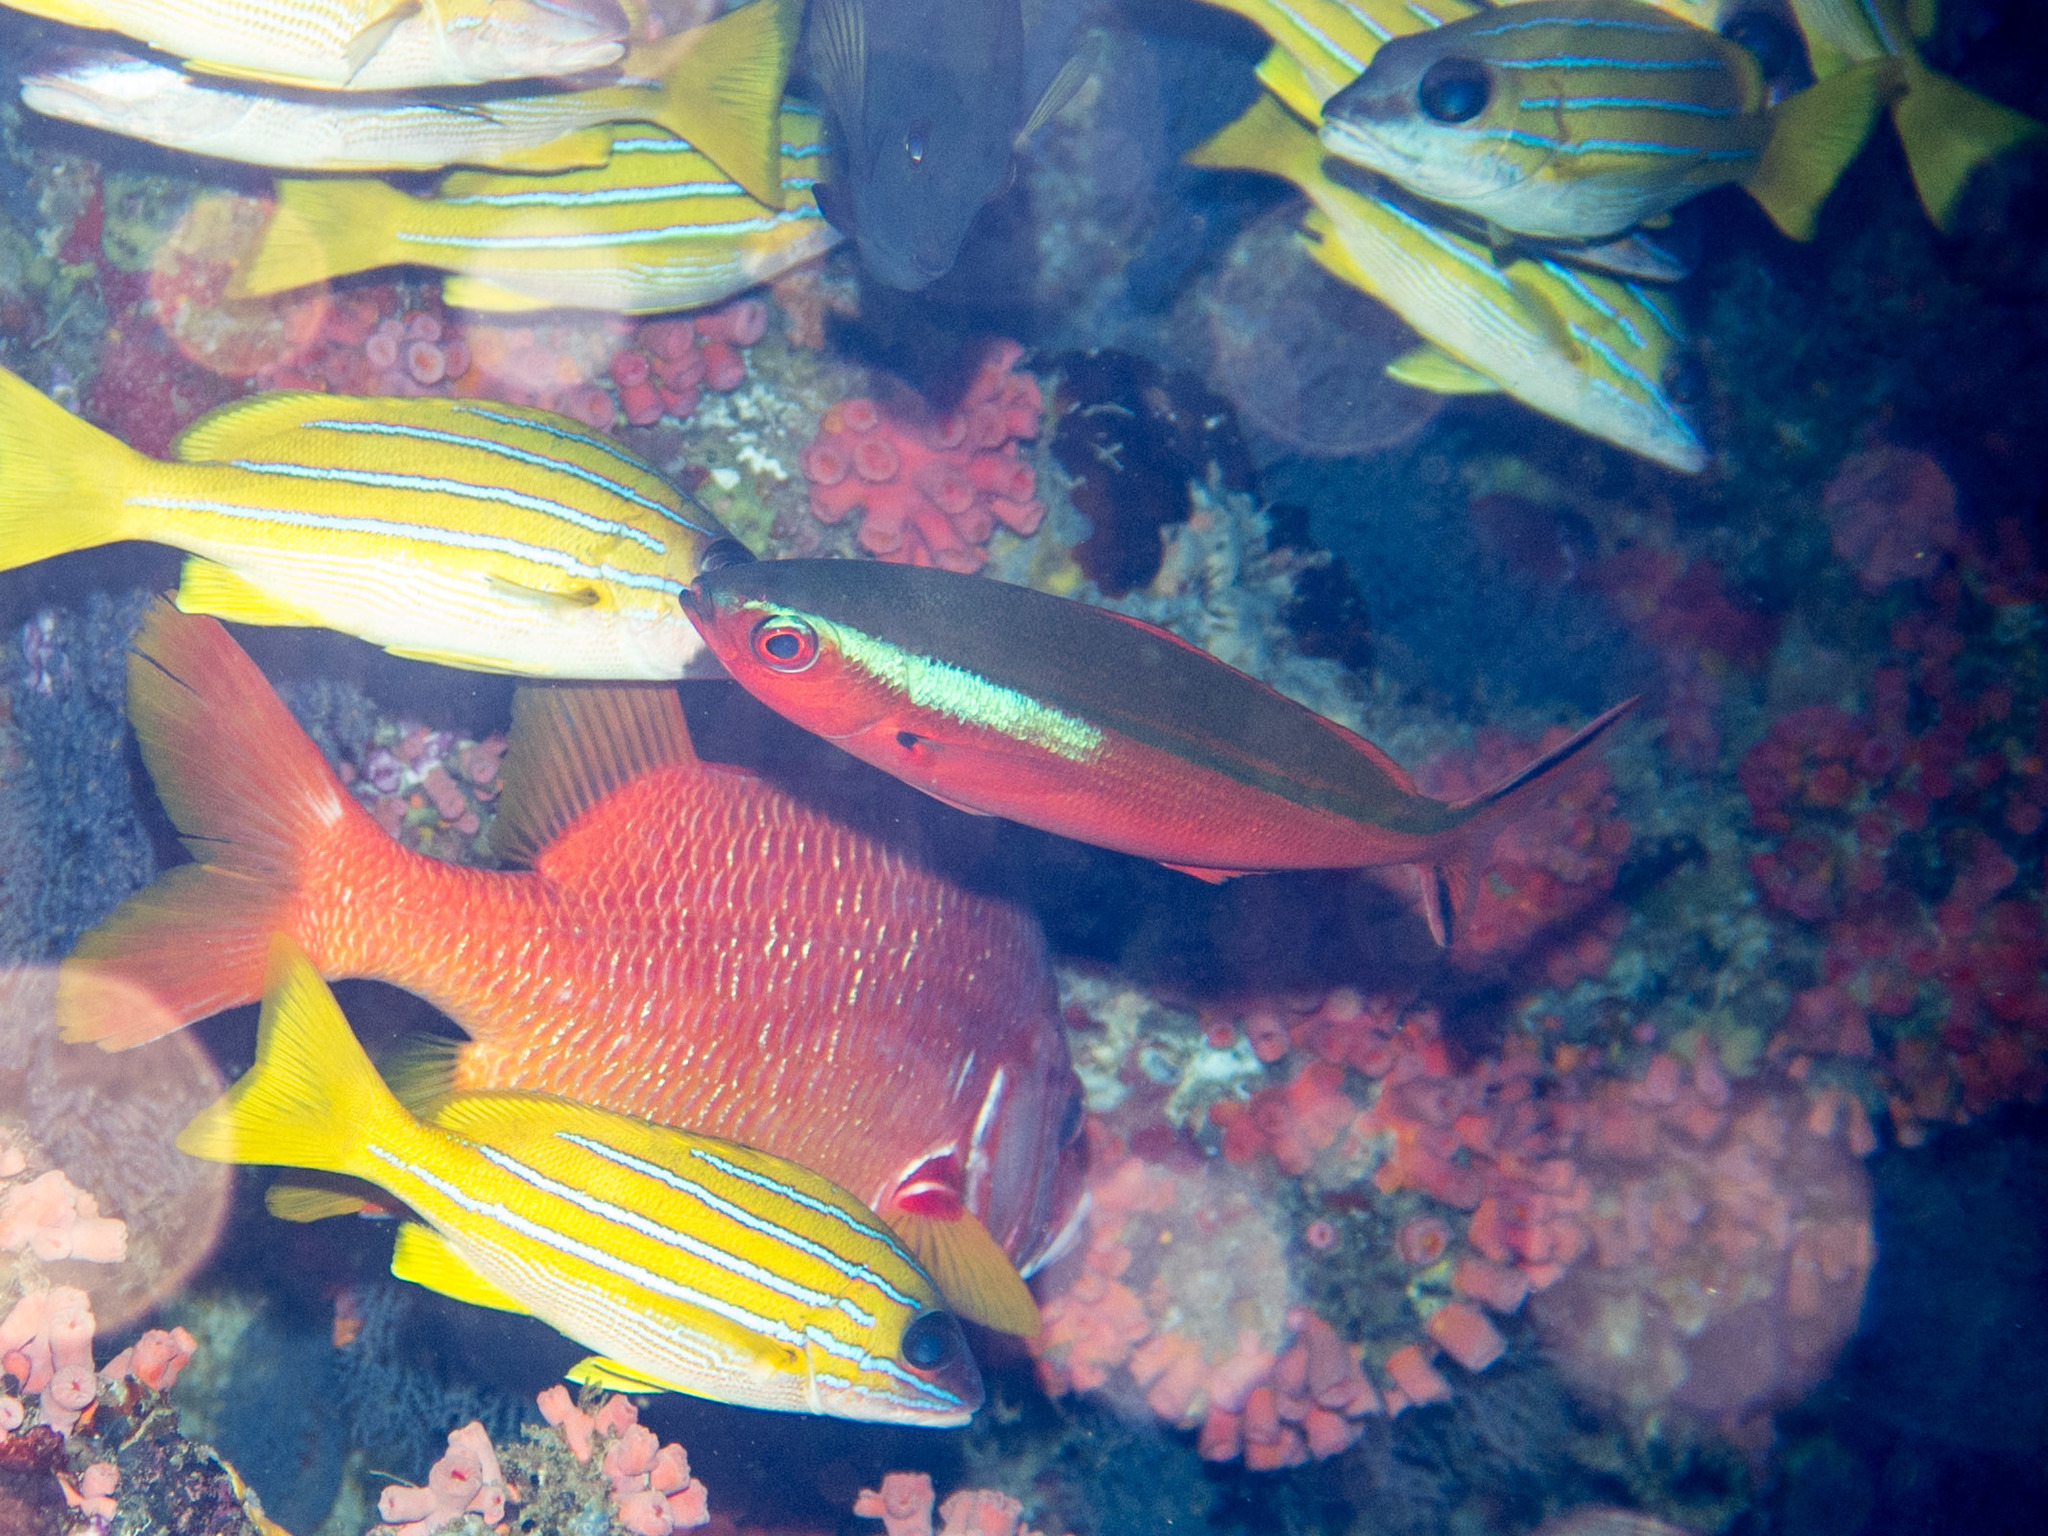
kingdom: Animalia
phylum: Chordata
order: Perciformes
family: Caesionidae
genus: Pterocaesio
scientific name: Pterocaesio tile
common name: Dark-banded fusilier
